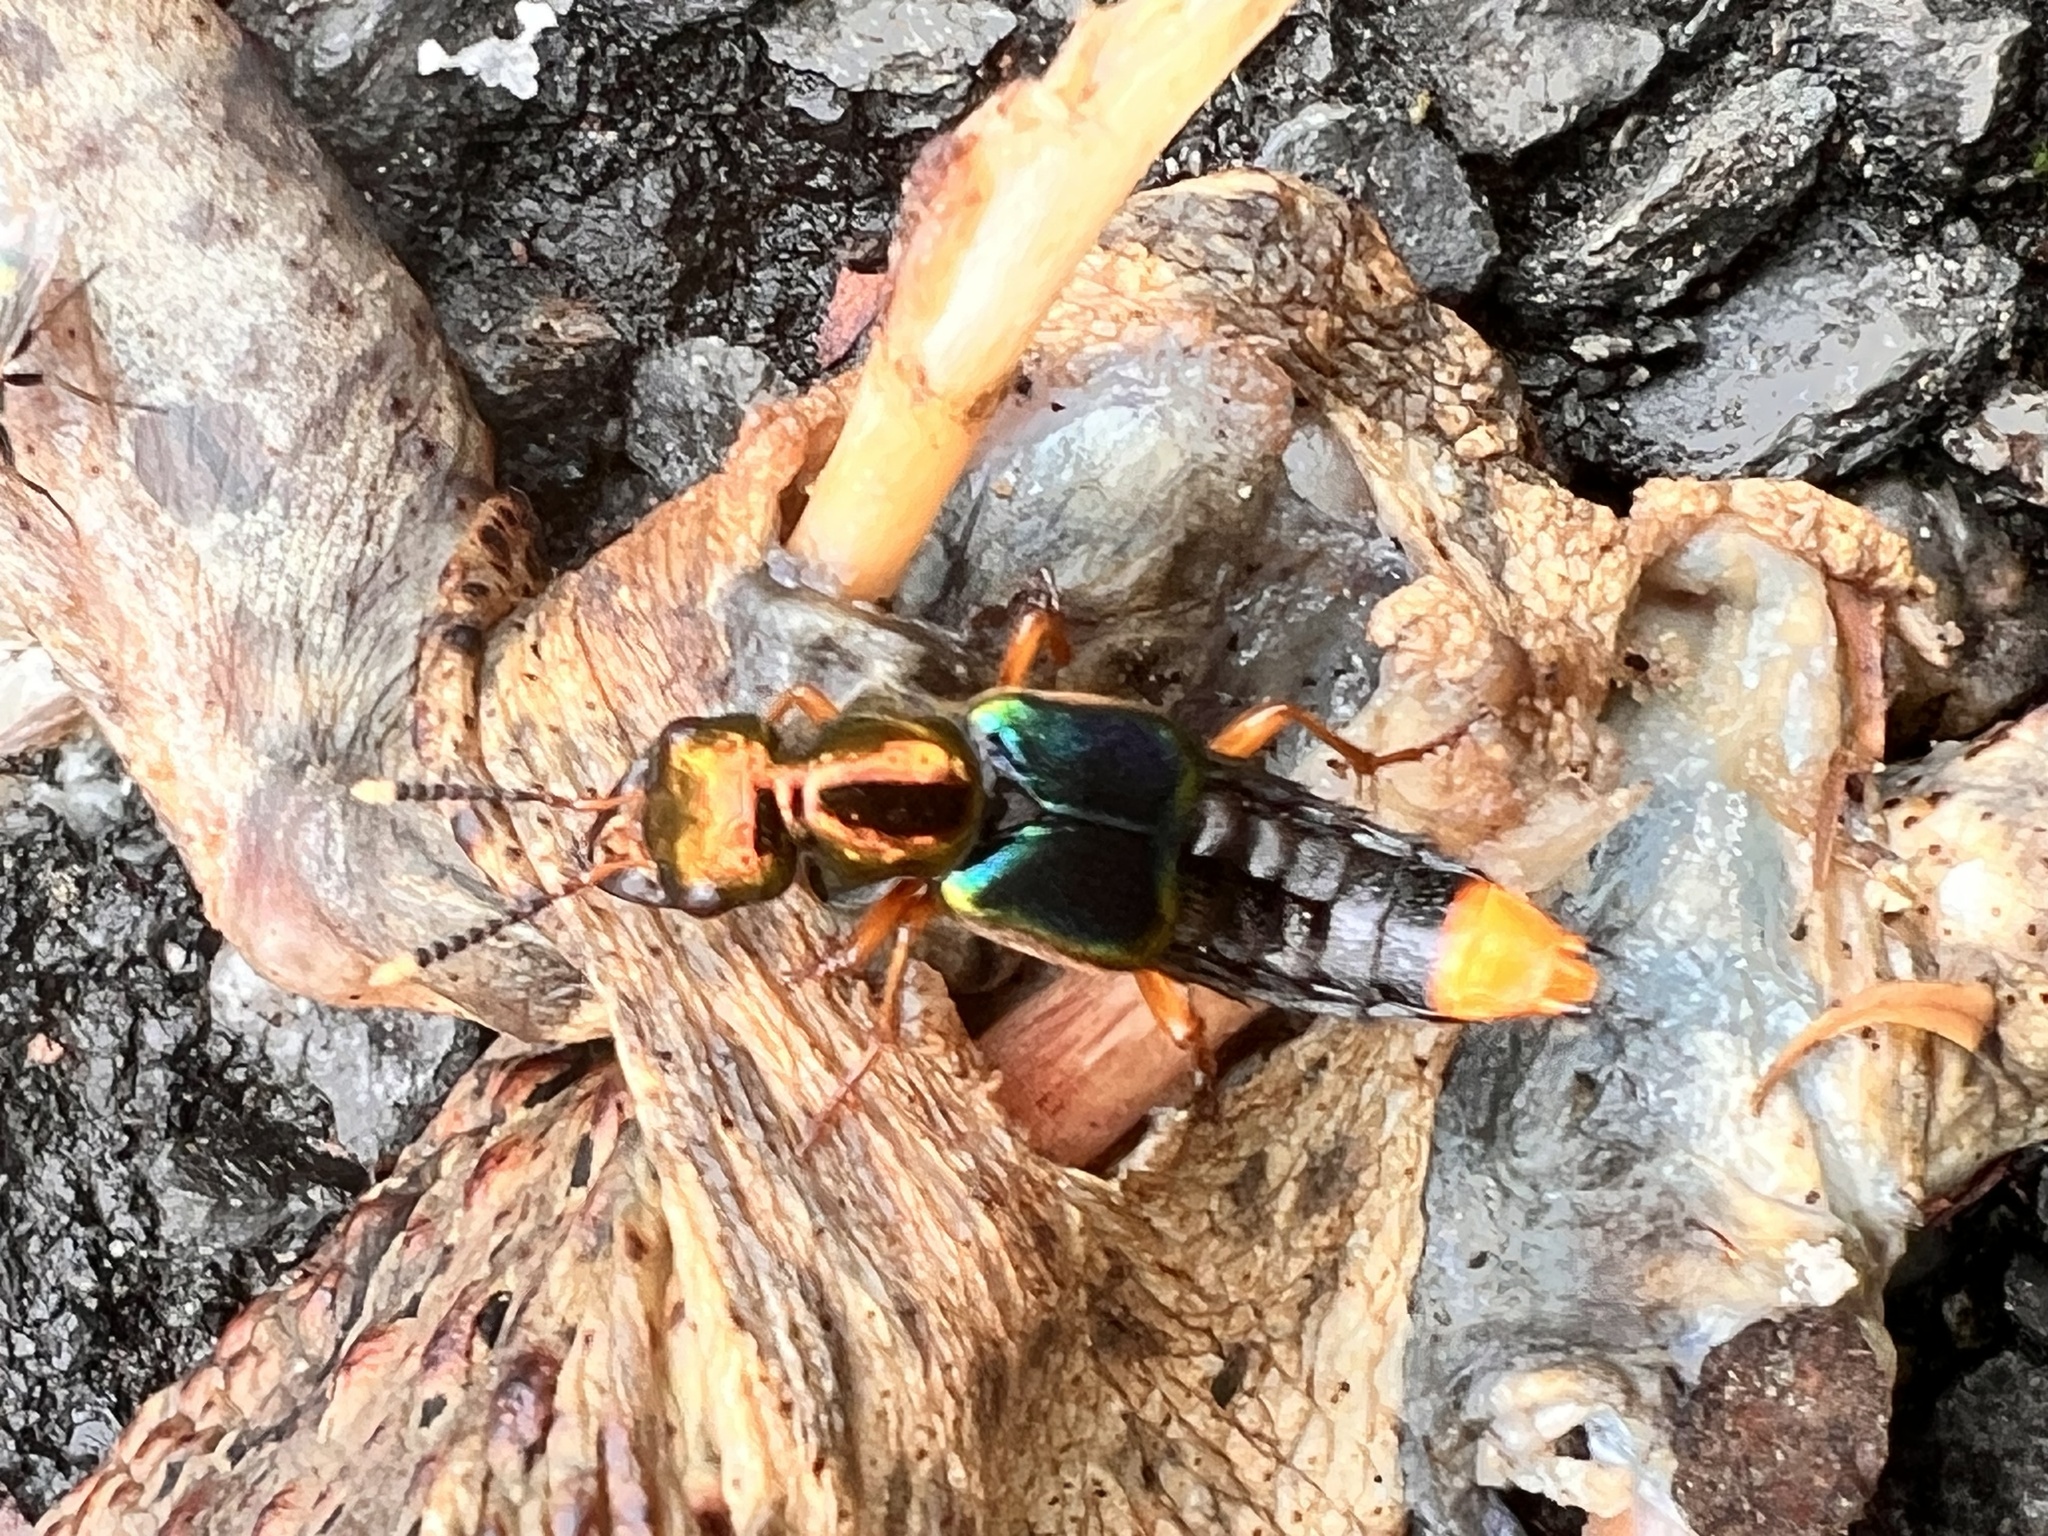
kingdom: Animalia
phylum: Arthropoda
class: Insecta
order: Coleoptera
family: Staphylinidae
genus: Actinus
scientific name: Actinus macleayi
